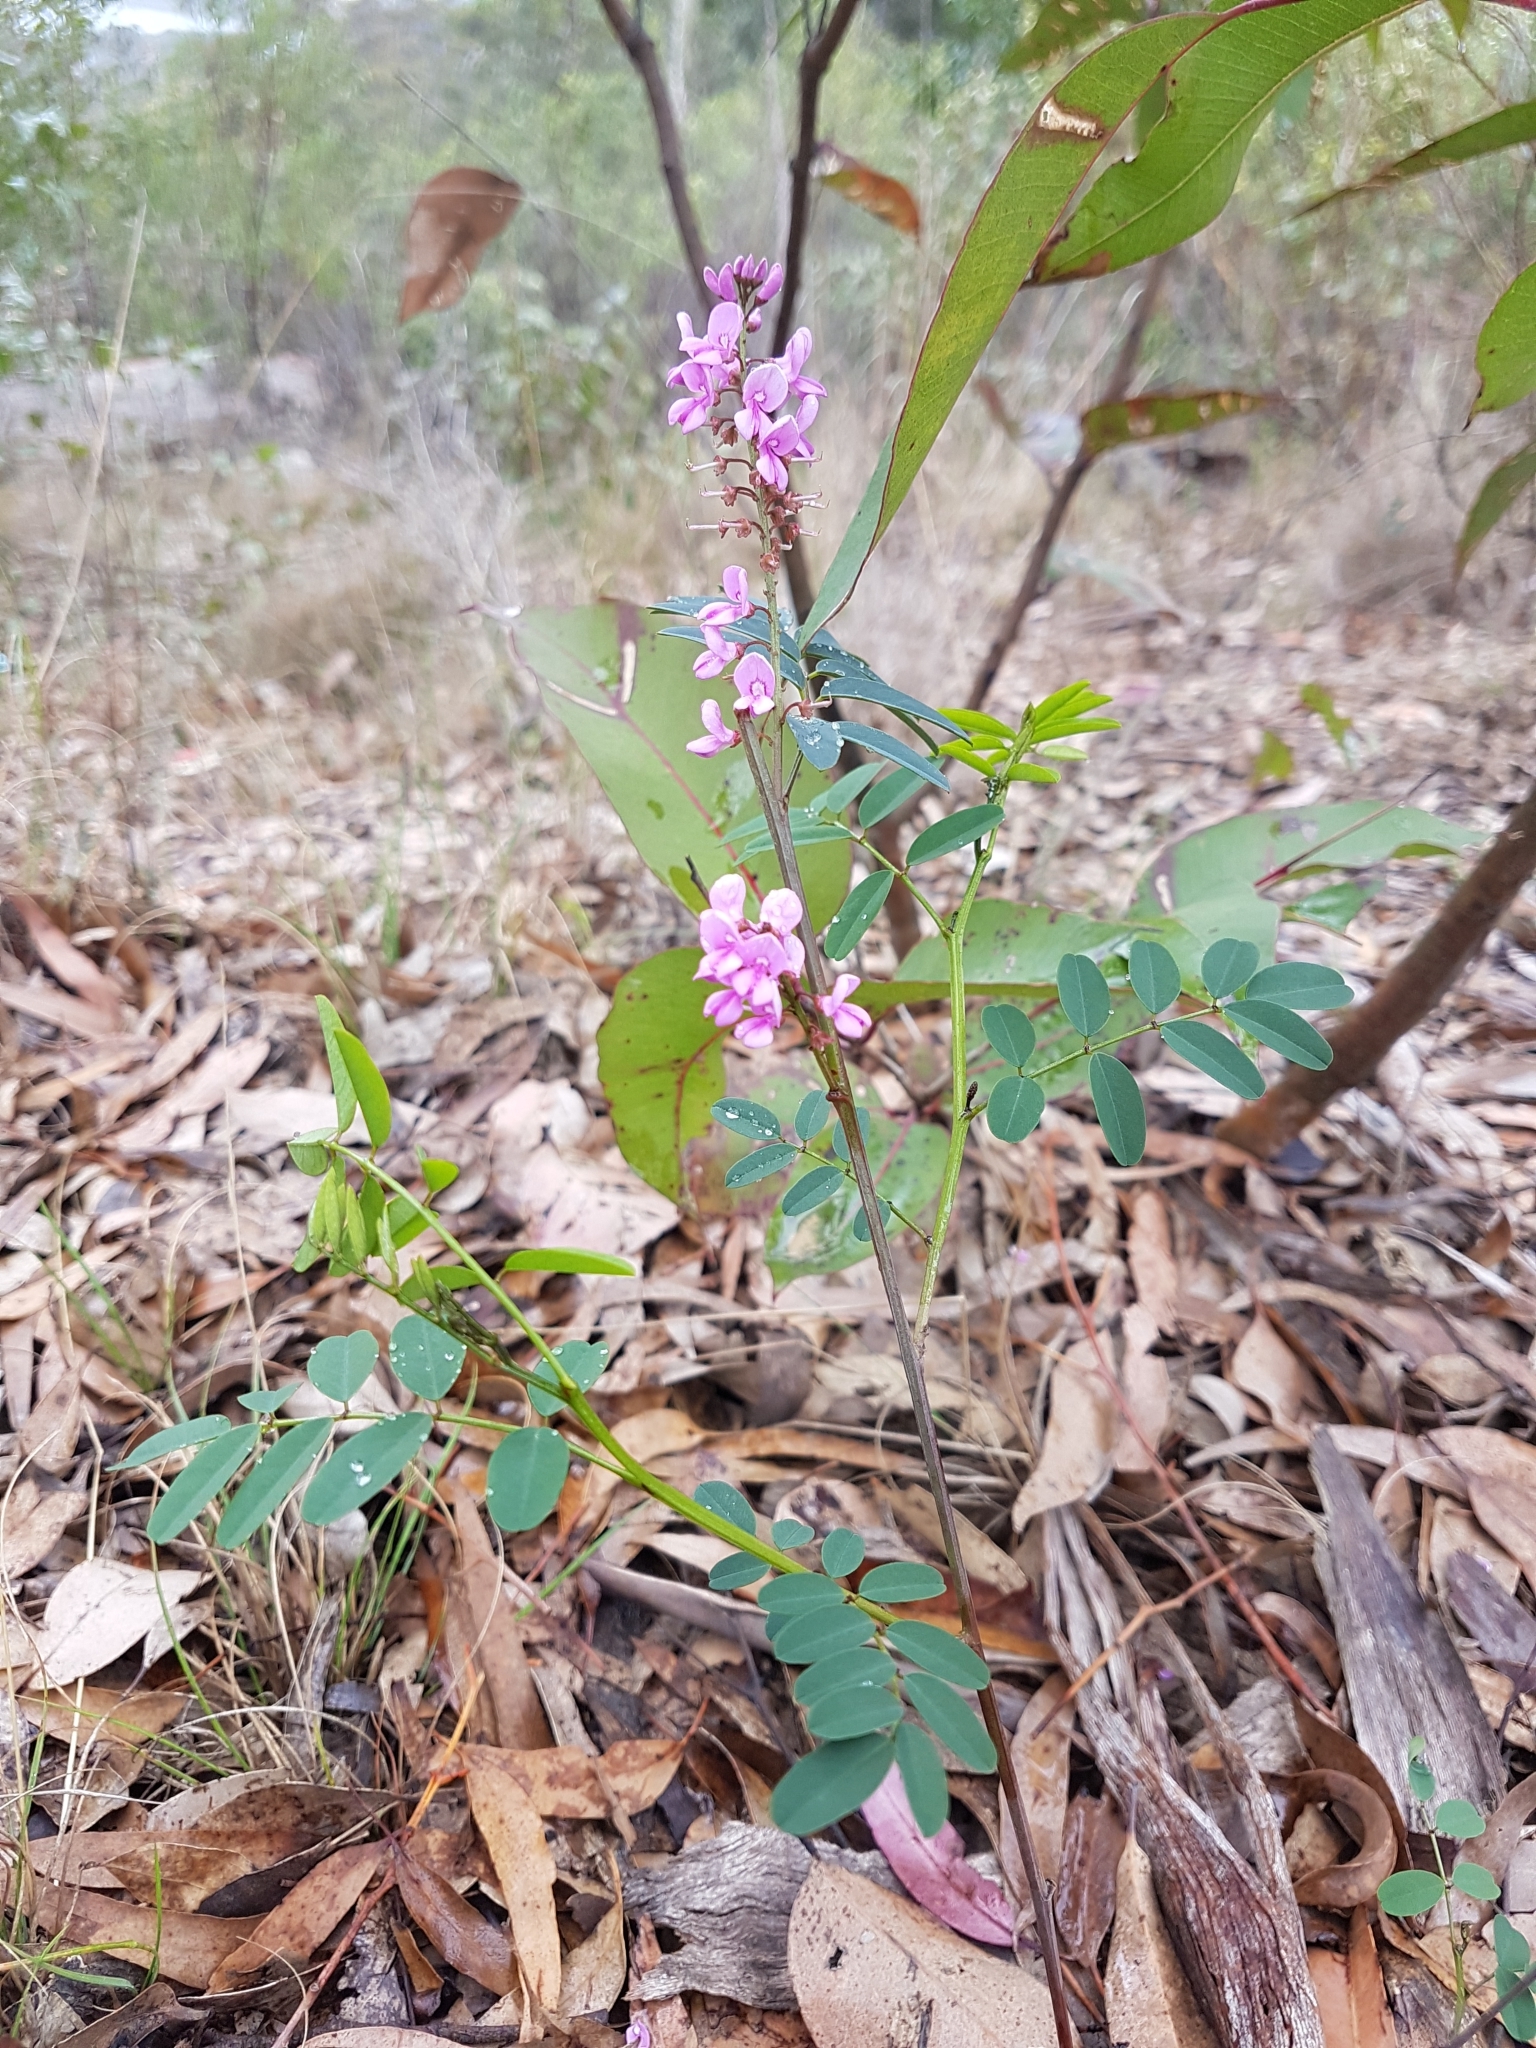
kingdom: Plantae
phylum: Tracheophyta
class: Magnoliopsida
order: Fabales
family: Fabaceae
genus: Indigofera
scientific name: Indigofera australis
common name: Australian indigo
